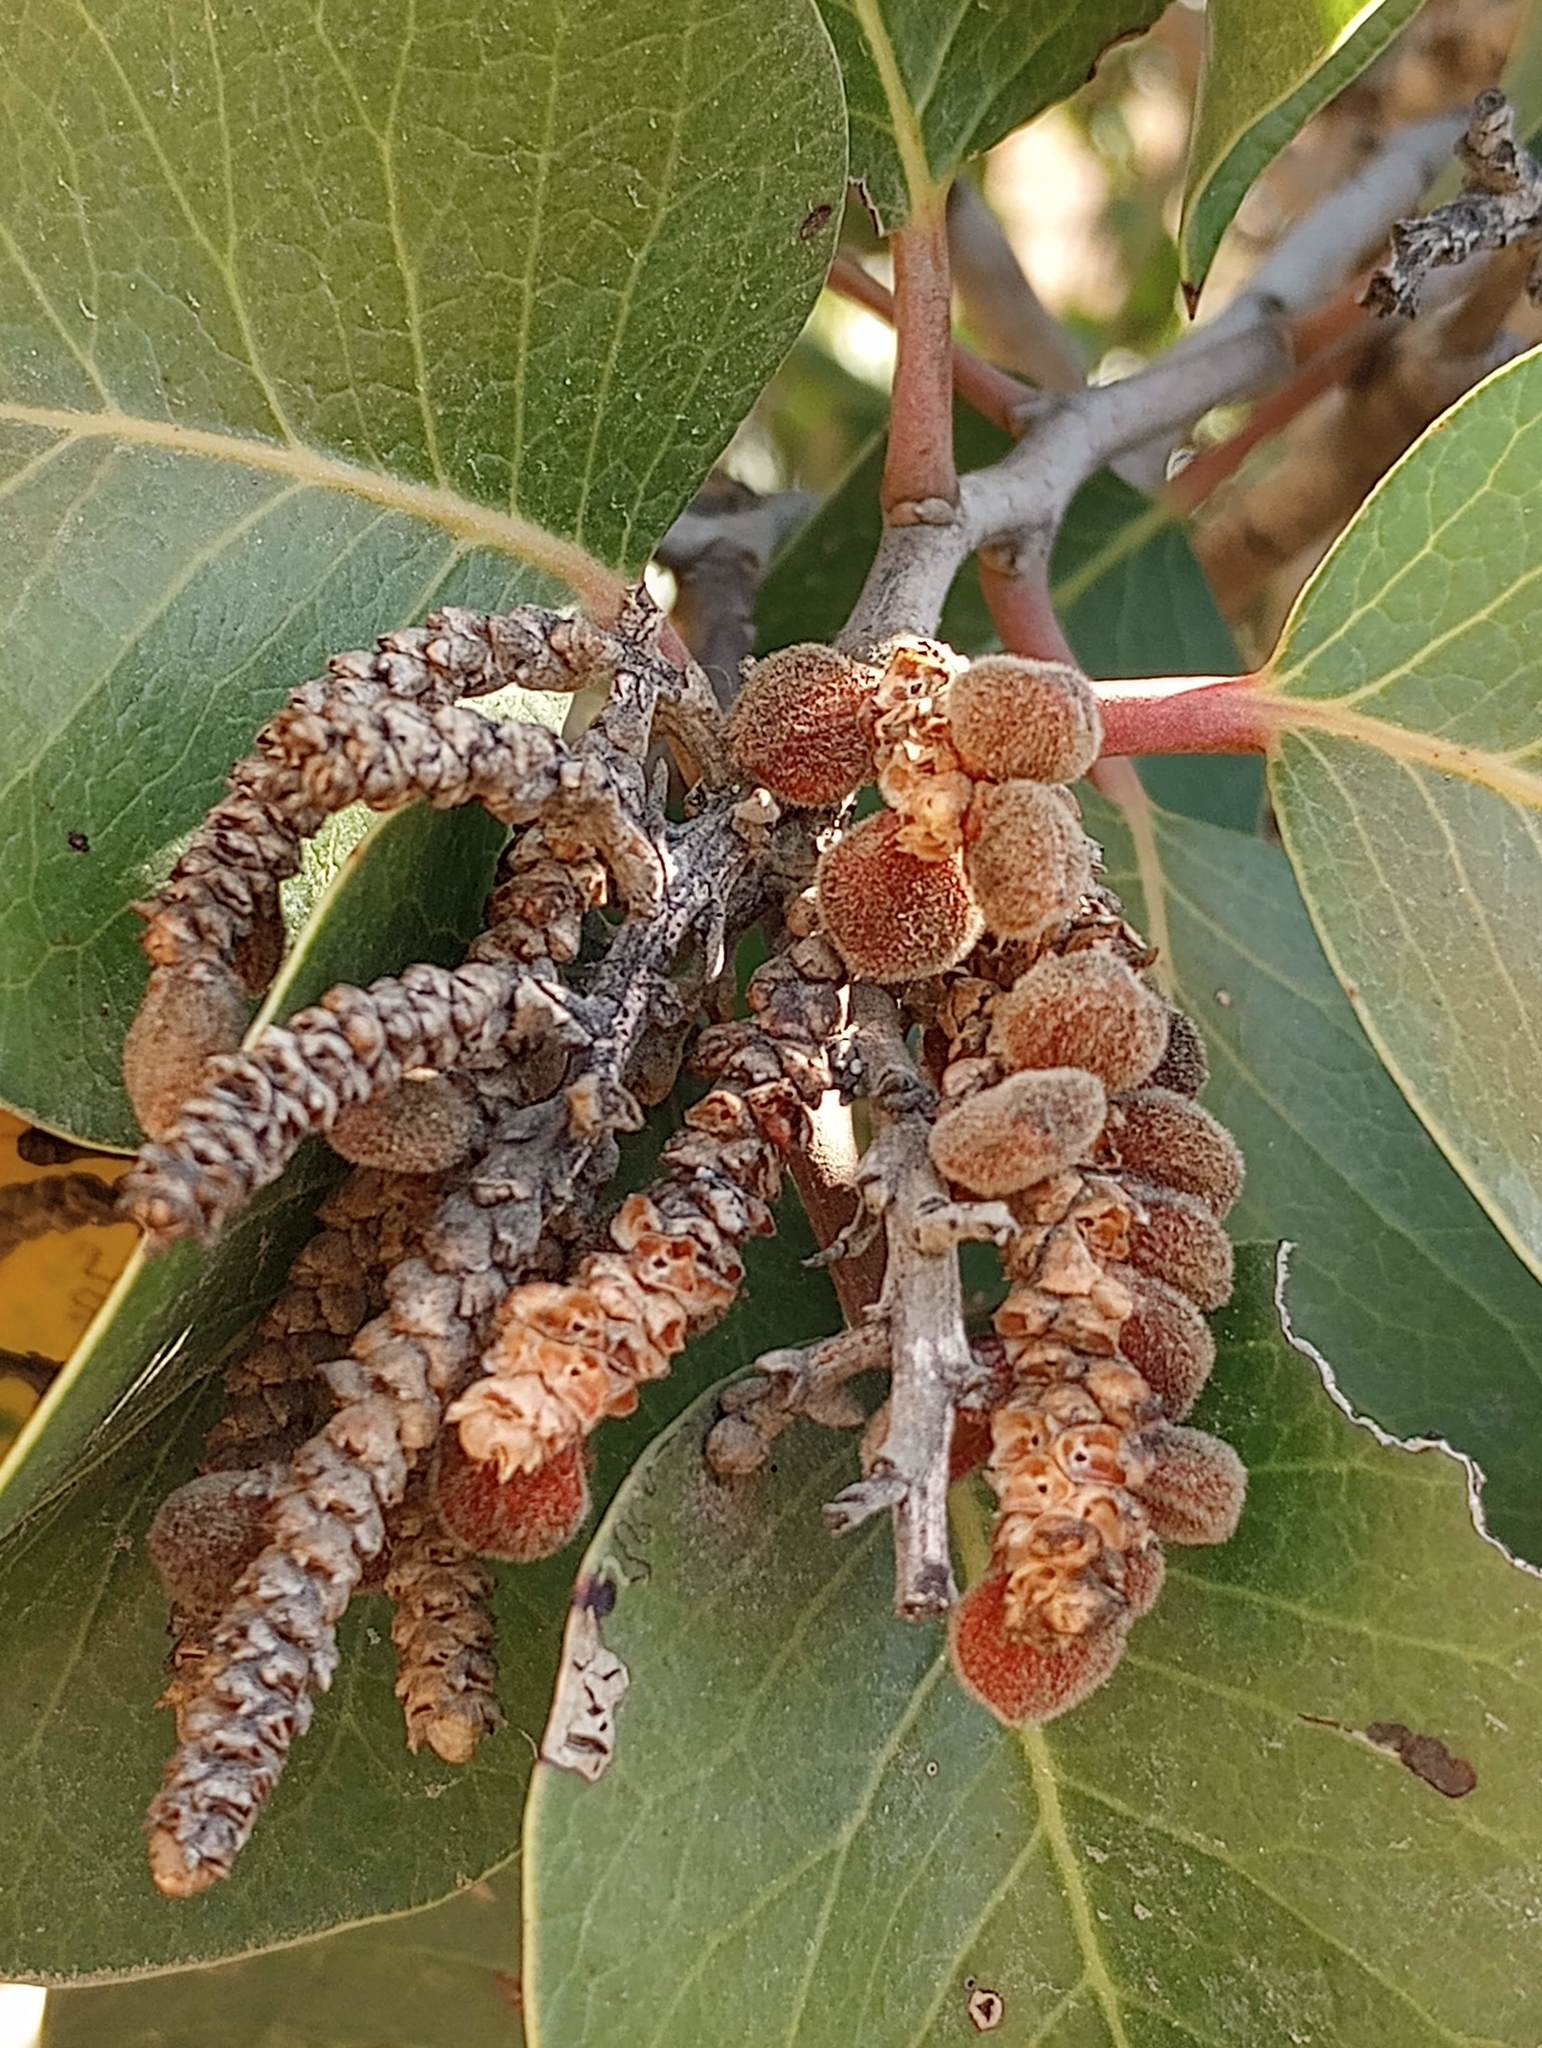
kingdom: Plantae
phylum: Tracheophyta
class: Magnoliopsida
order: Sapindales
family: Anacardiaceae
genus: Rhus
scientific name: Rhus ovata
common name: Sugar sumac
